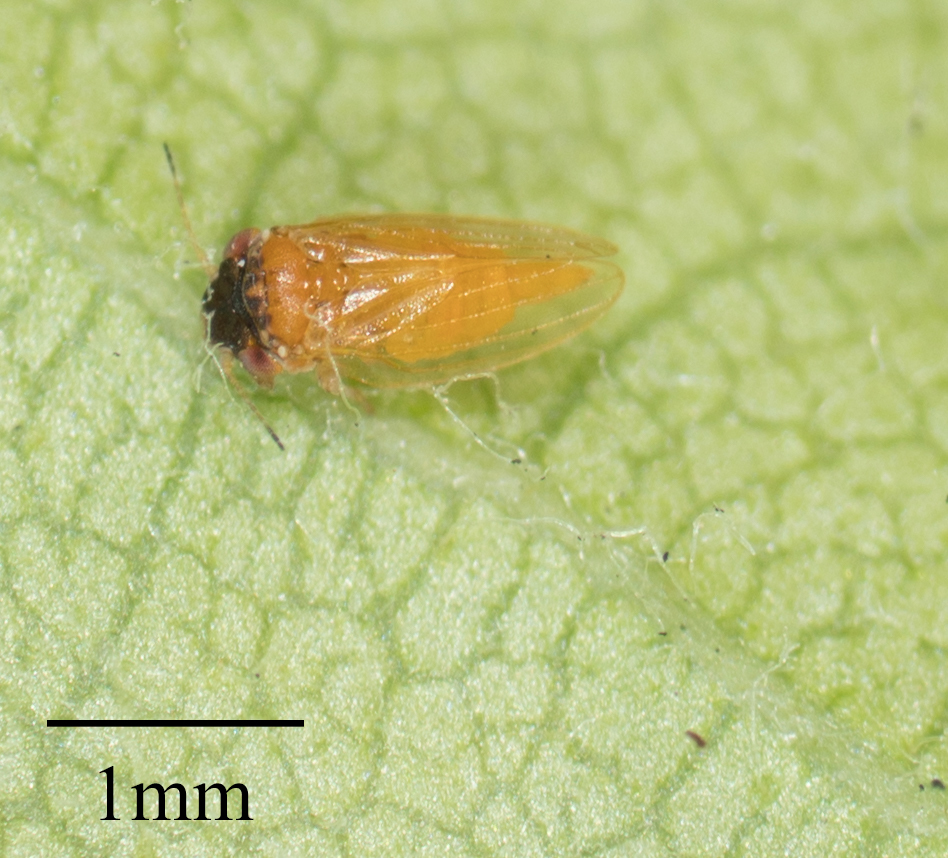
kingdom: Animalia
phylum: Arthropoda
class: Insecta
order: Hemiptera
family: Aphalaridae
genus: Ctenarytaina
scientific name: Ctenarytaina longicauda
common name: Tristania psyllid
